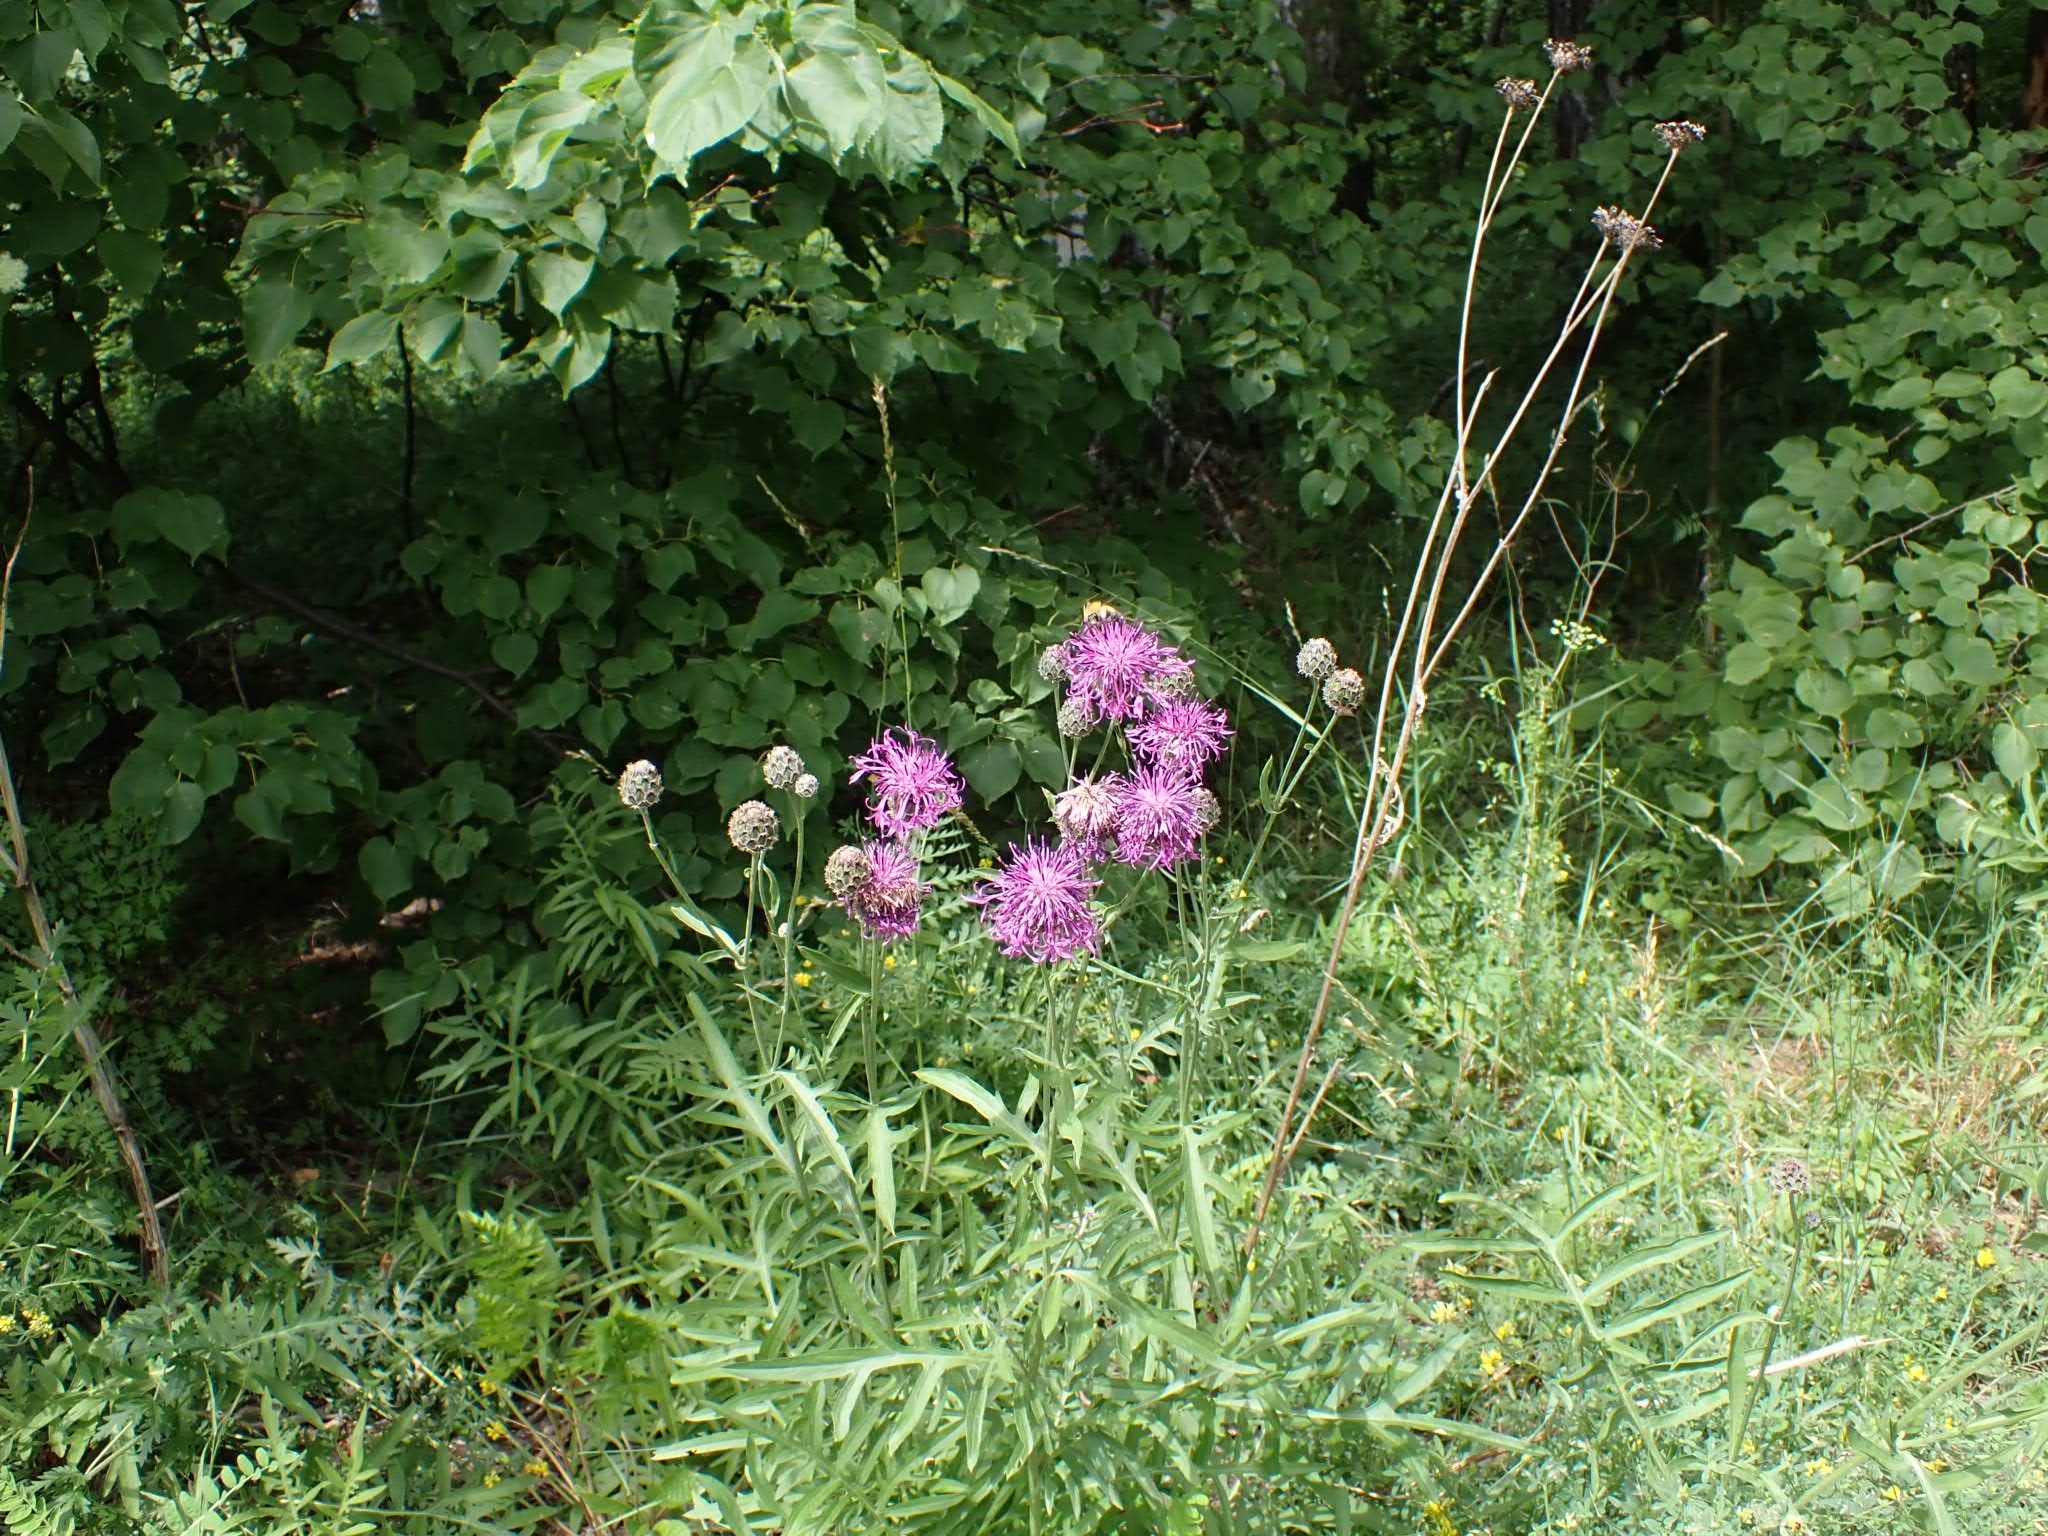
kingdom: Plantae
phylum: Tracheophyta
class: Magnoliopsida
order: Asterales
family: Asteraceae
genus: Centaurea
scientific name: Centaurea scabiosa
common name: Greater knapweed
